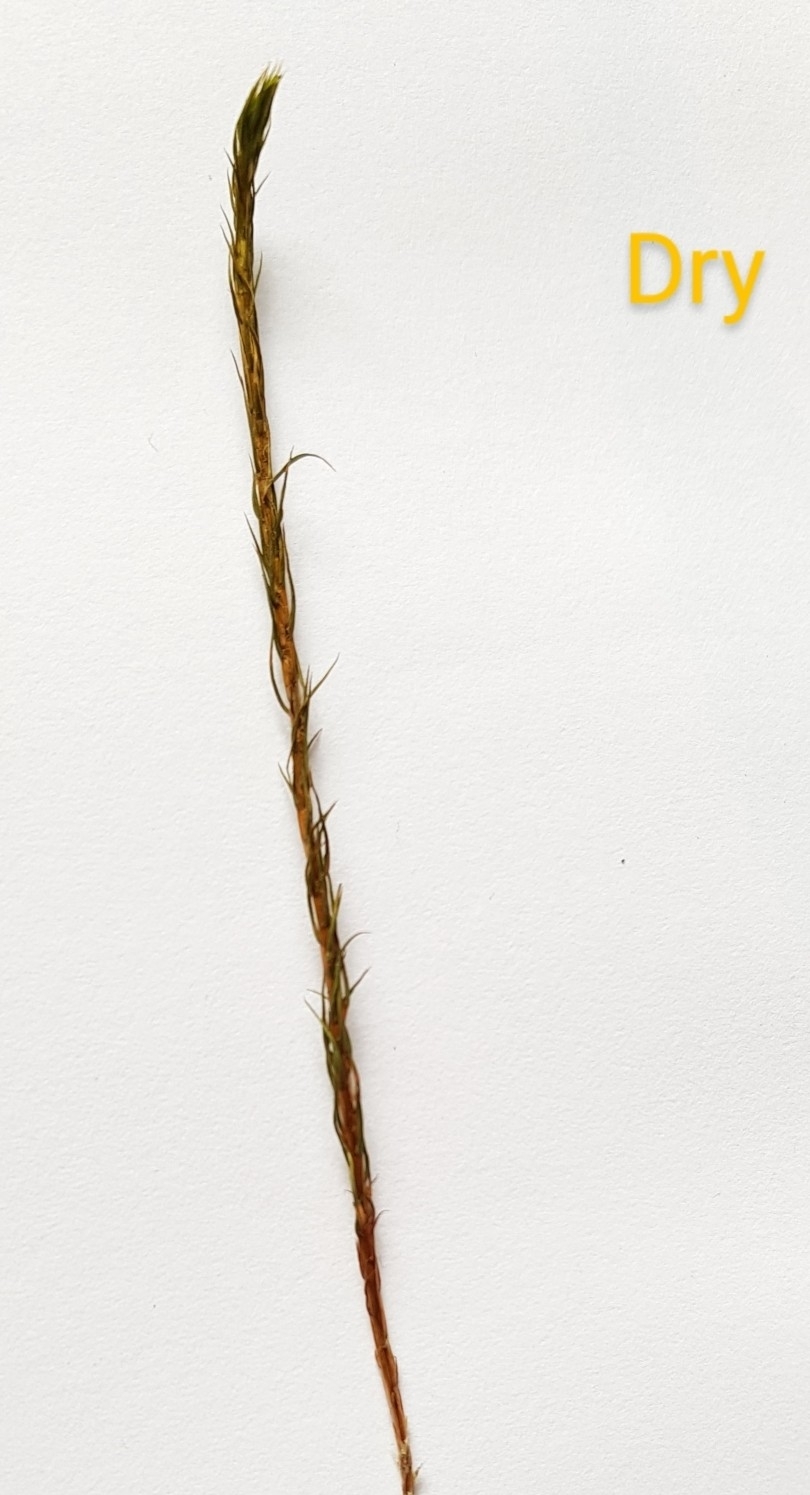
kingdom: Plantae
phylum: Bryophyta
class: Polytrichopsida
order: Polytrichales
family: Polytrichaceae
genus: Polytrichum
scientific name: Polytrichum commune
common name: Common haircap
